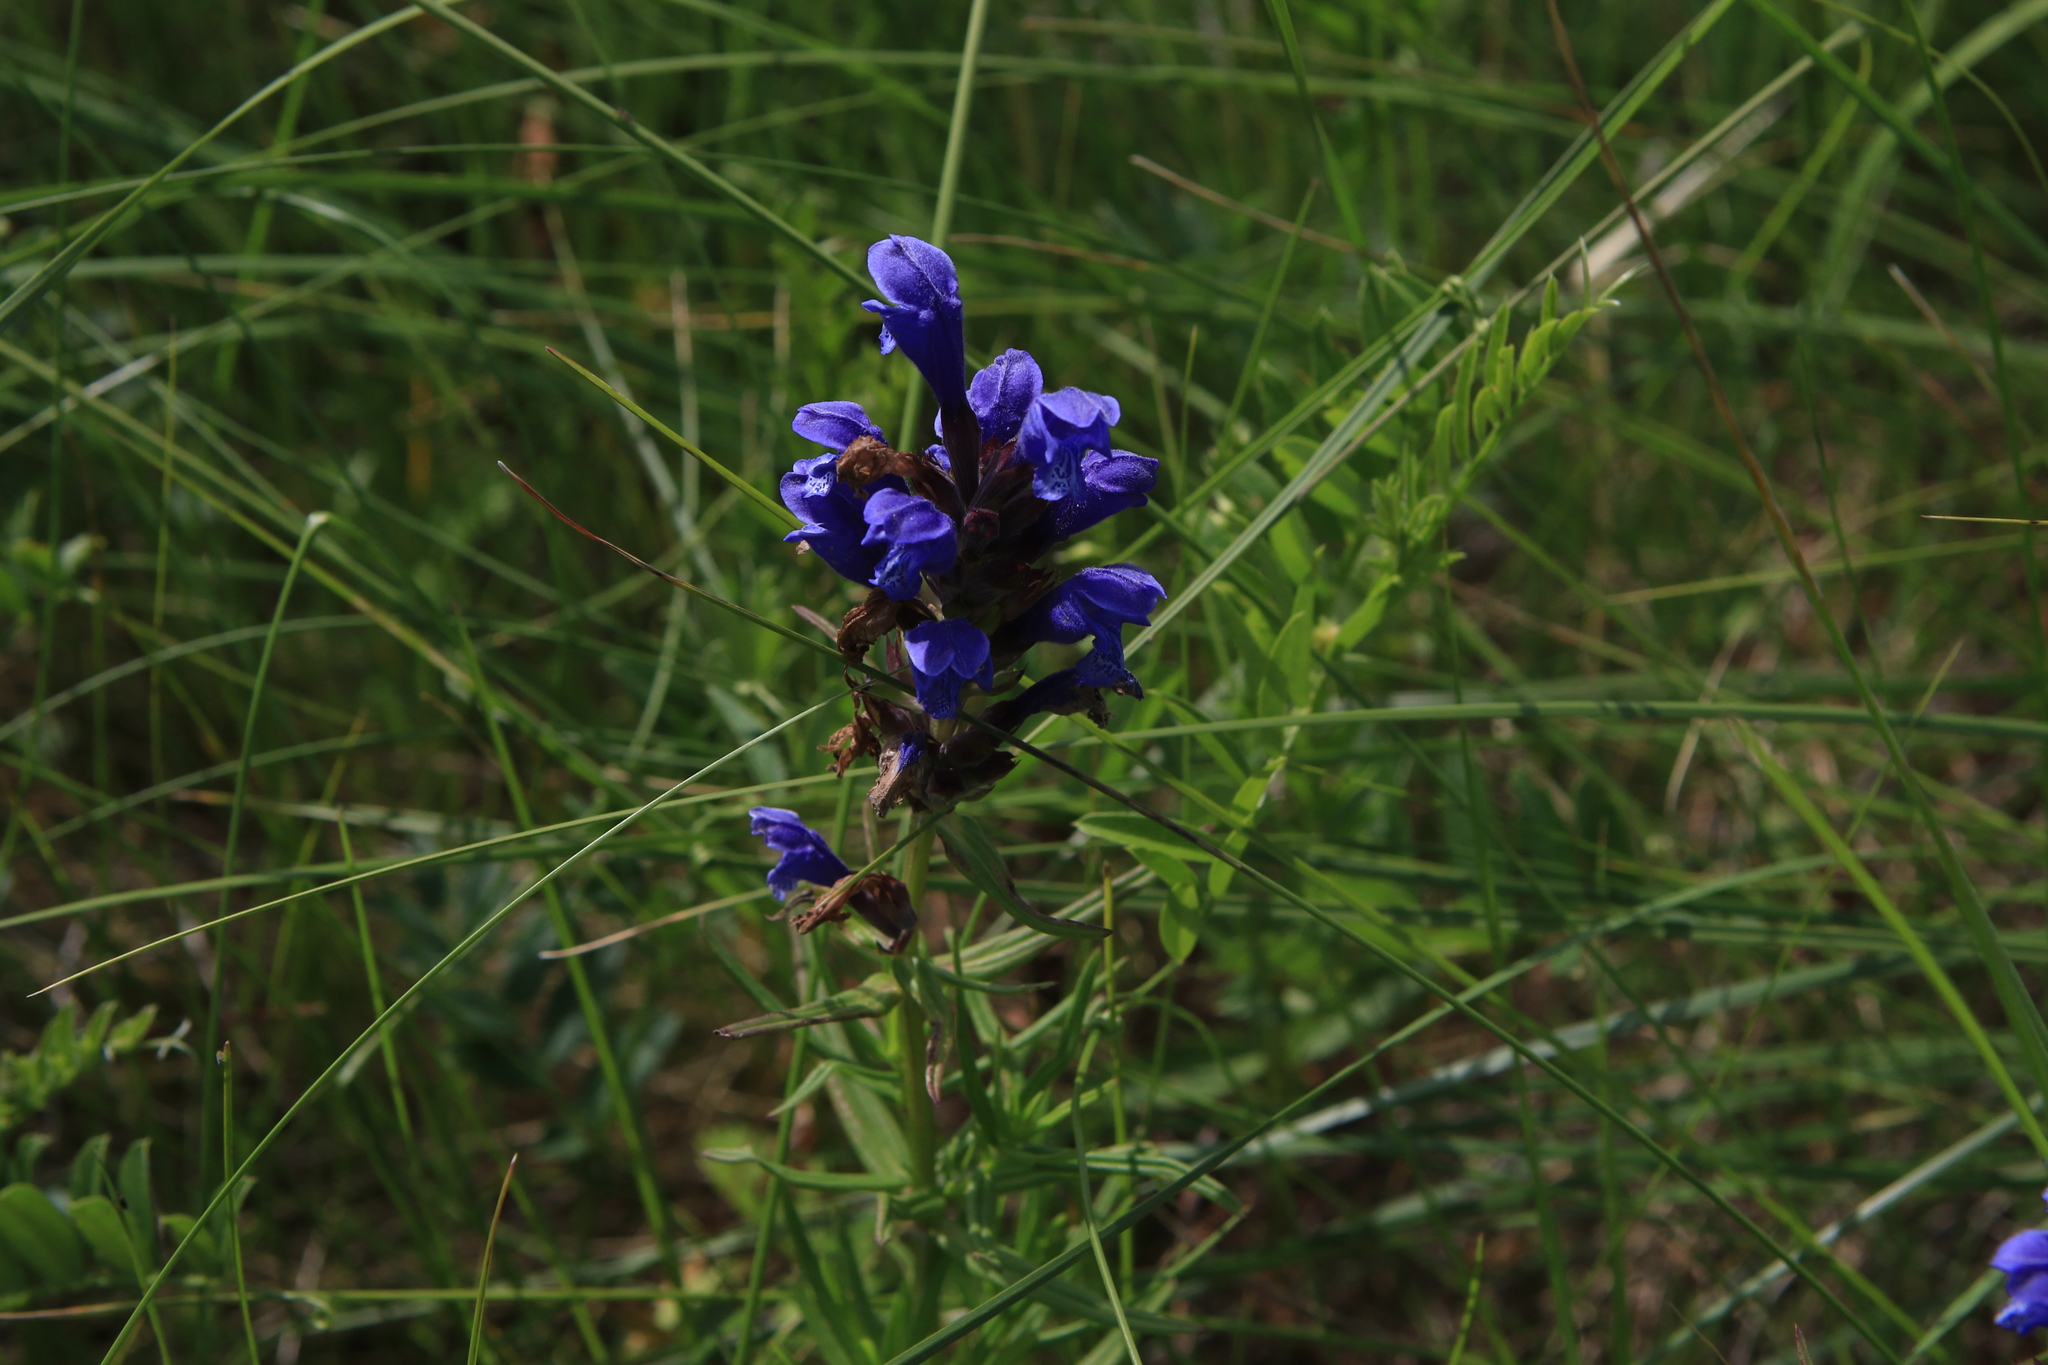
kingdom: Plantae
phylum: Tracheophyta
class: Magnoliopsida
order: Lamiales
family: Lamiaceae
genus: Dracocephalum
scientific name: Dracocephalum ruyschiana
